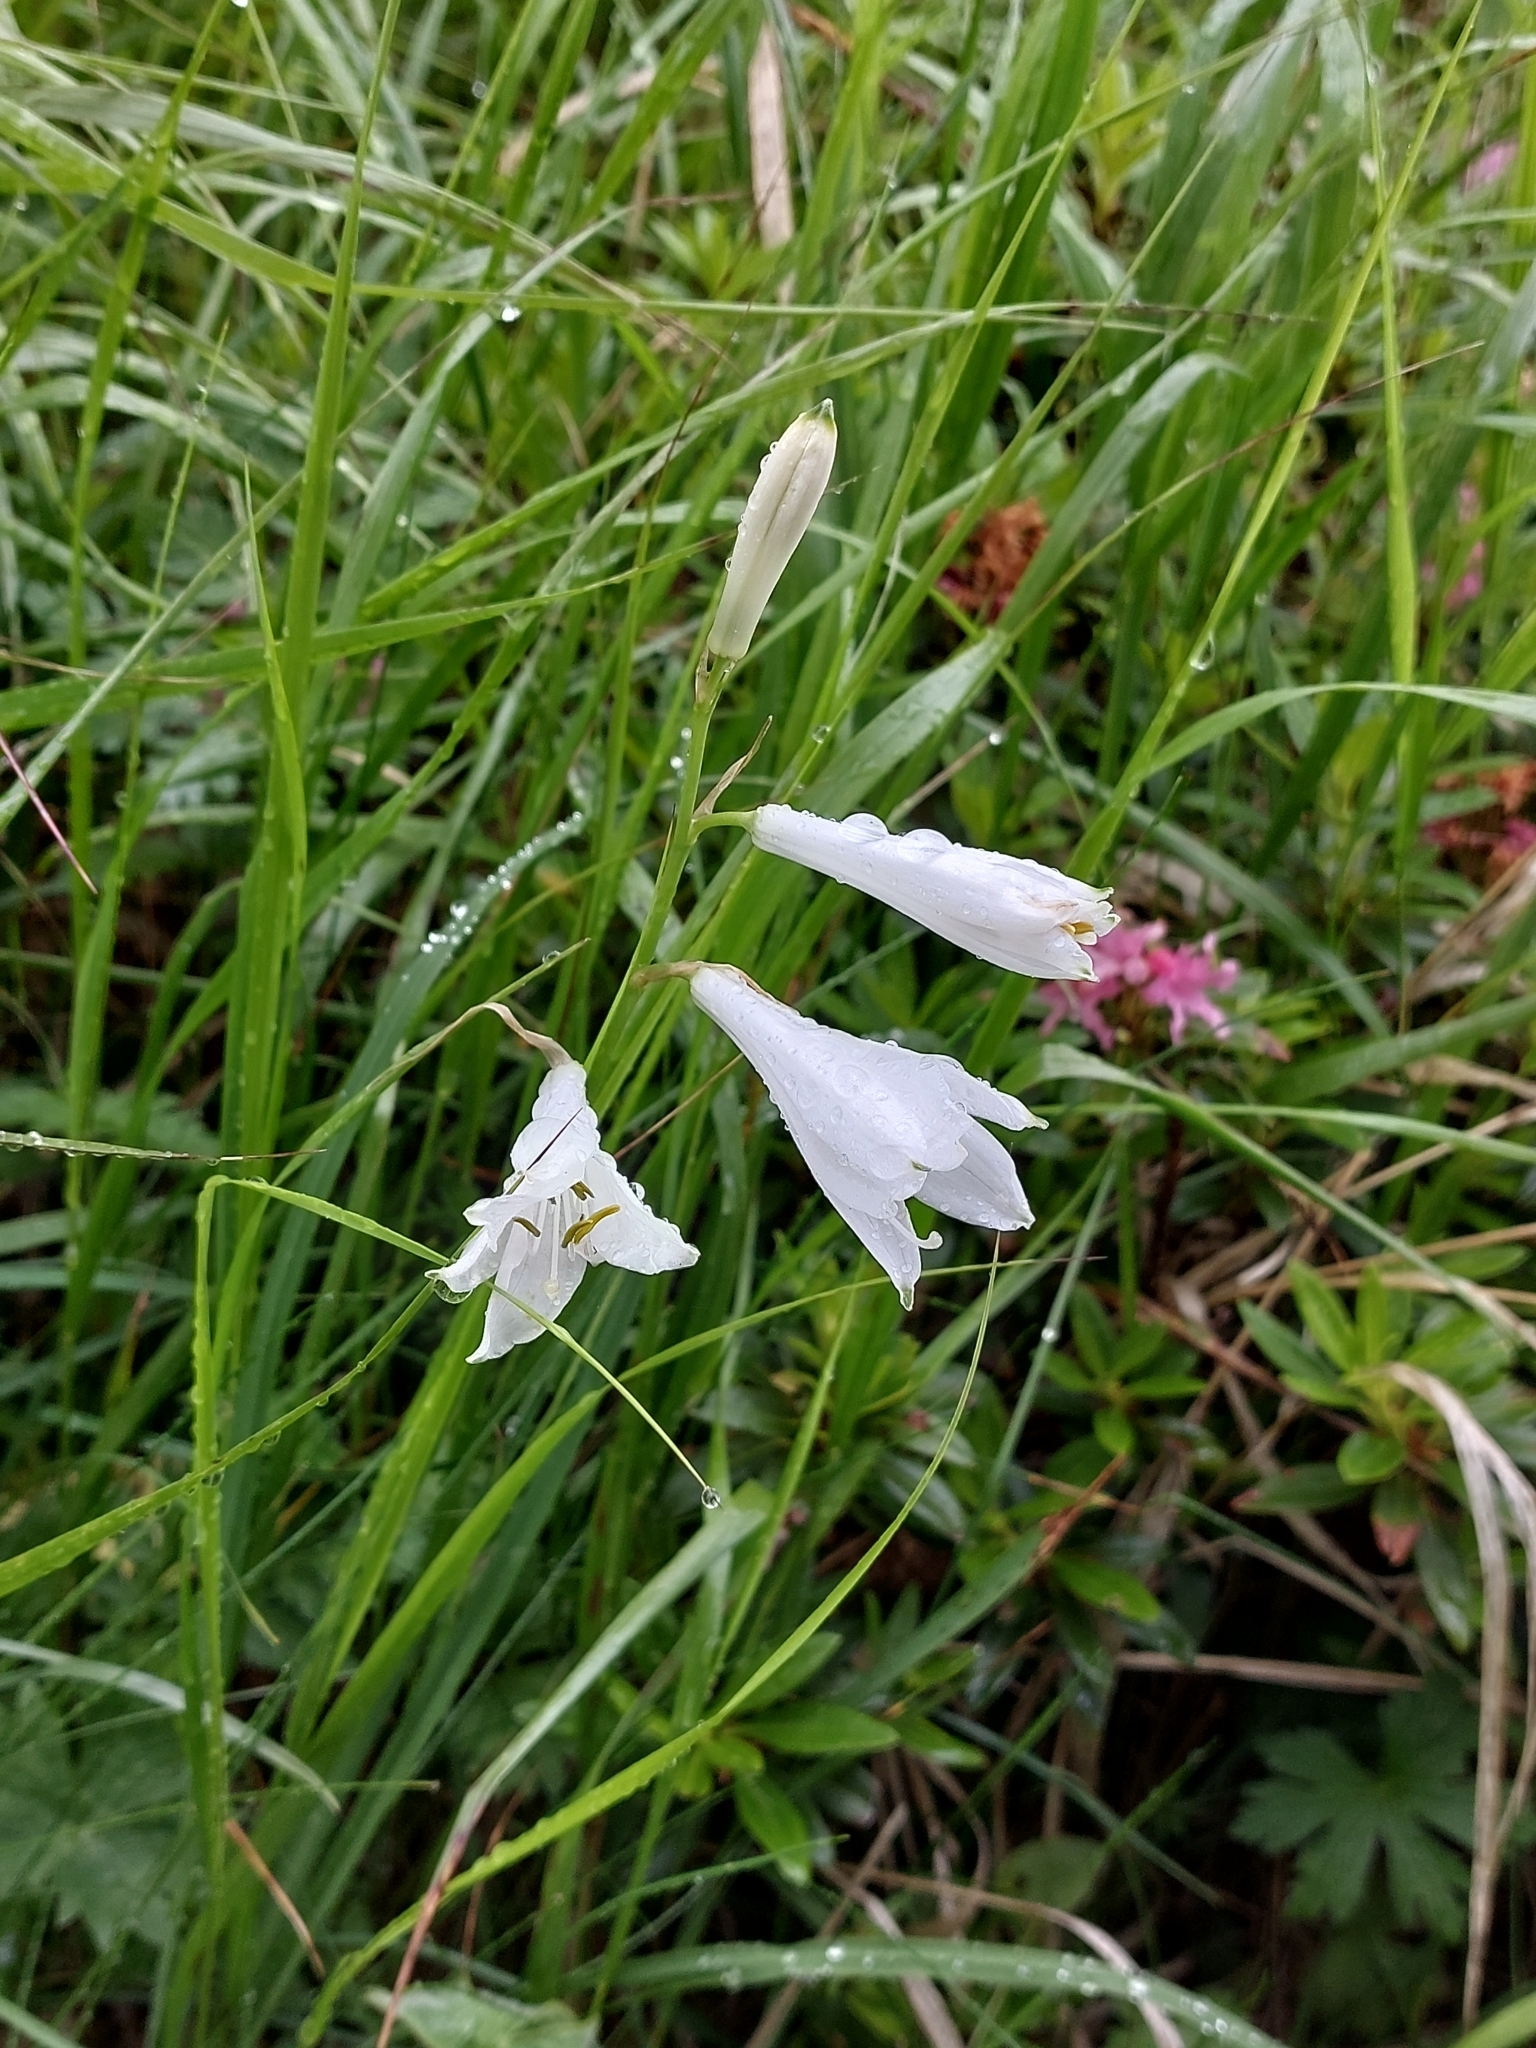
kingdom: Plantae
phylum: Tracheophyta
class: Liliopsida
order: Asparagales
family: Asparagaceae
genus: Paradisea
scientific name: Paradisea liliastrum
